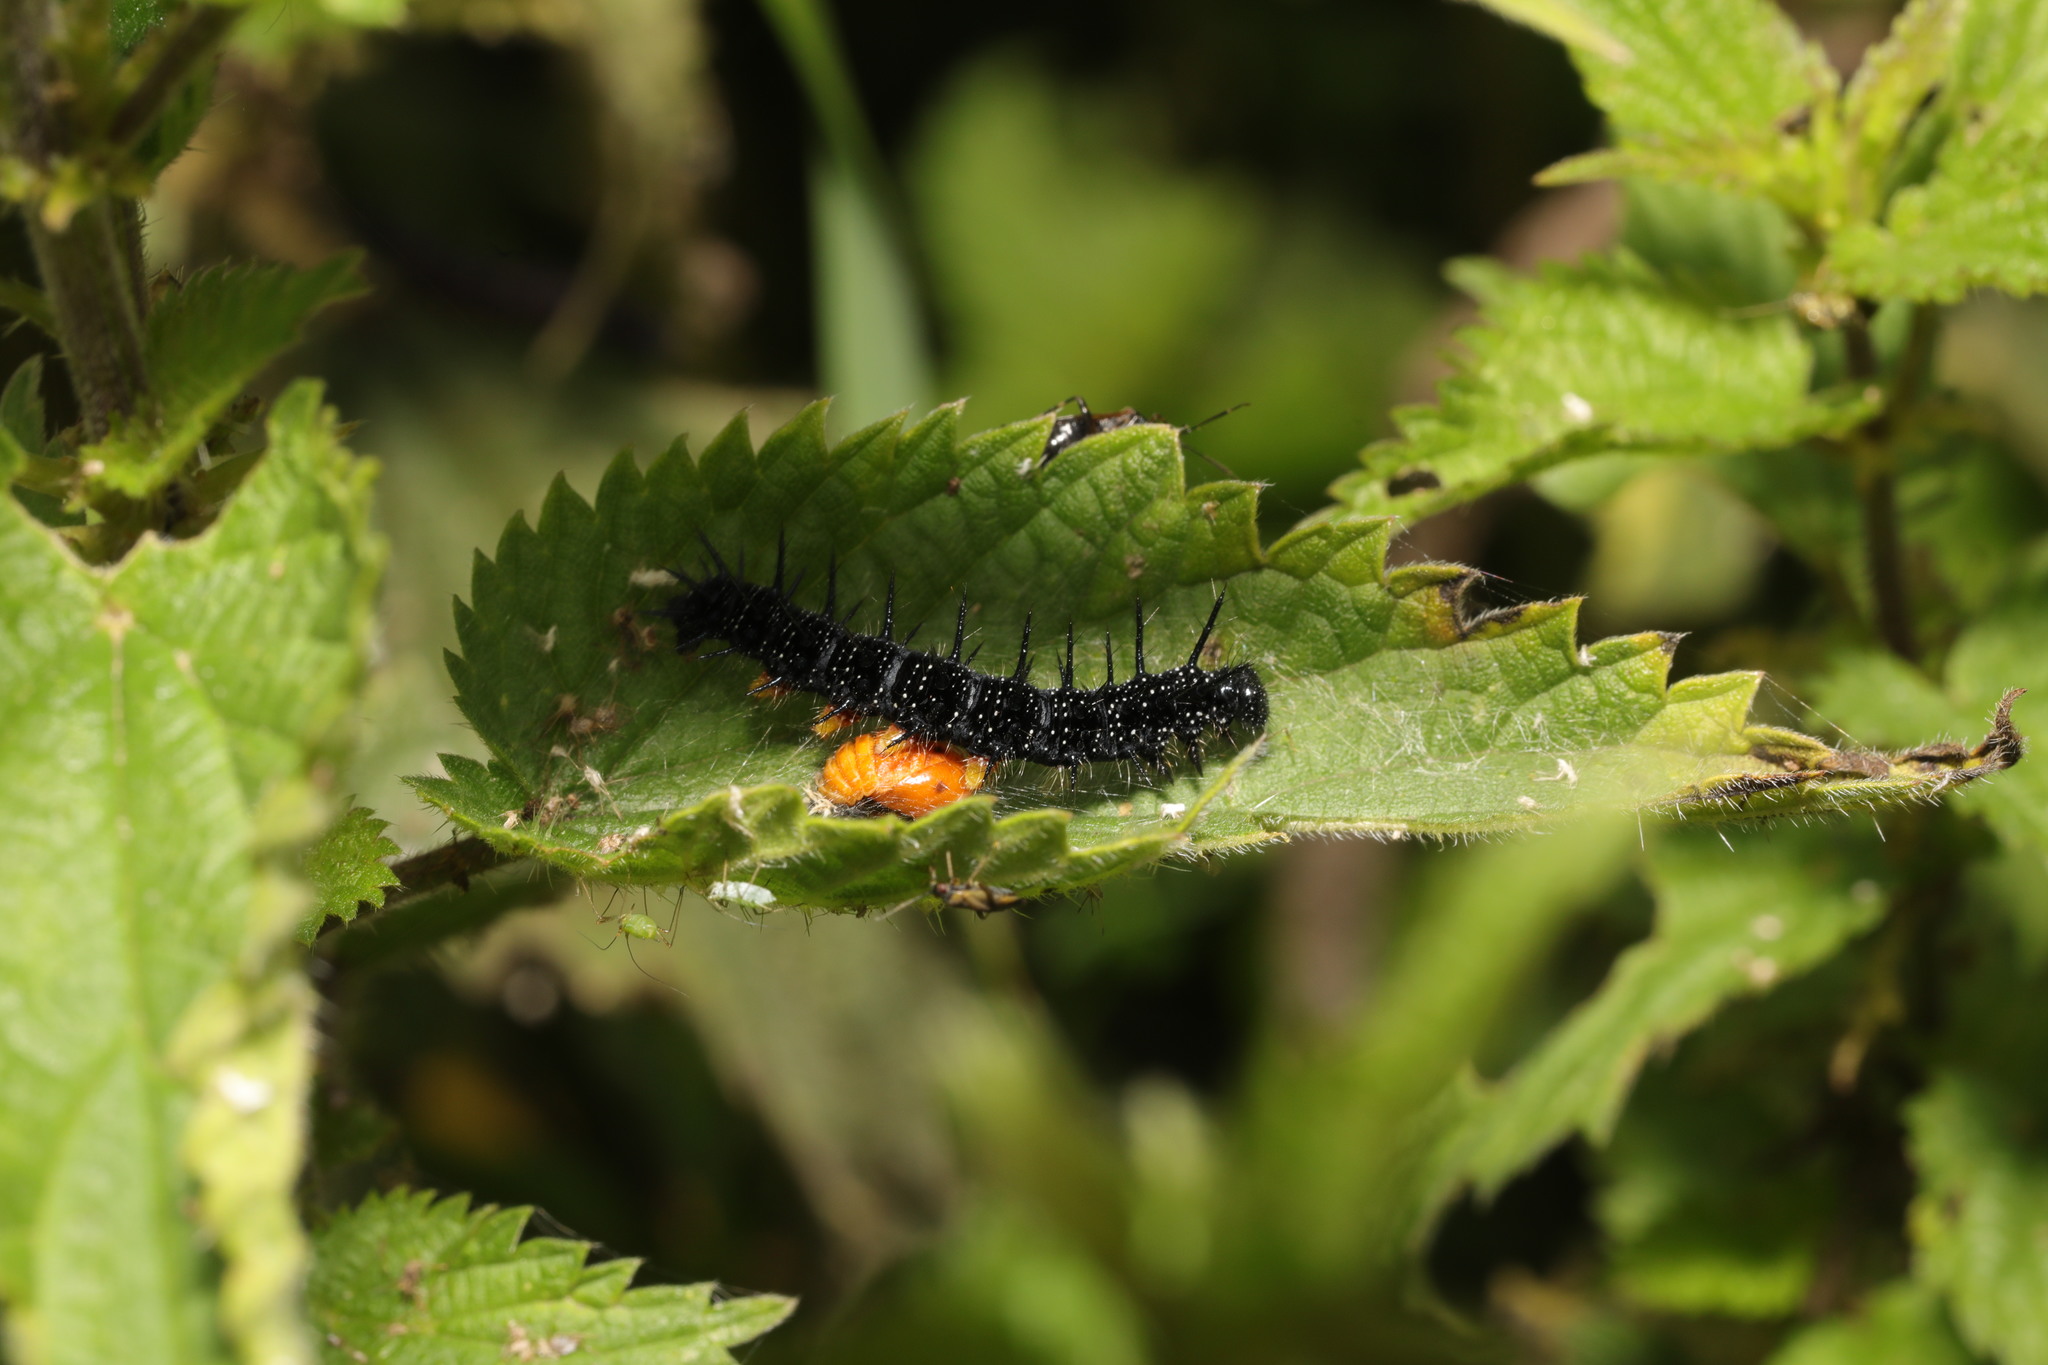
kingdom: Animalia
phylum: Arthropoda
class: Insecta
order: Lepidoptera
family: Nymphalidae
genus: Aglais
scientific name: Aglais io
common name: Peacock
